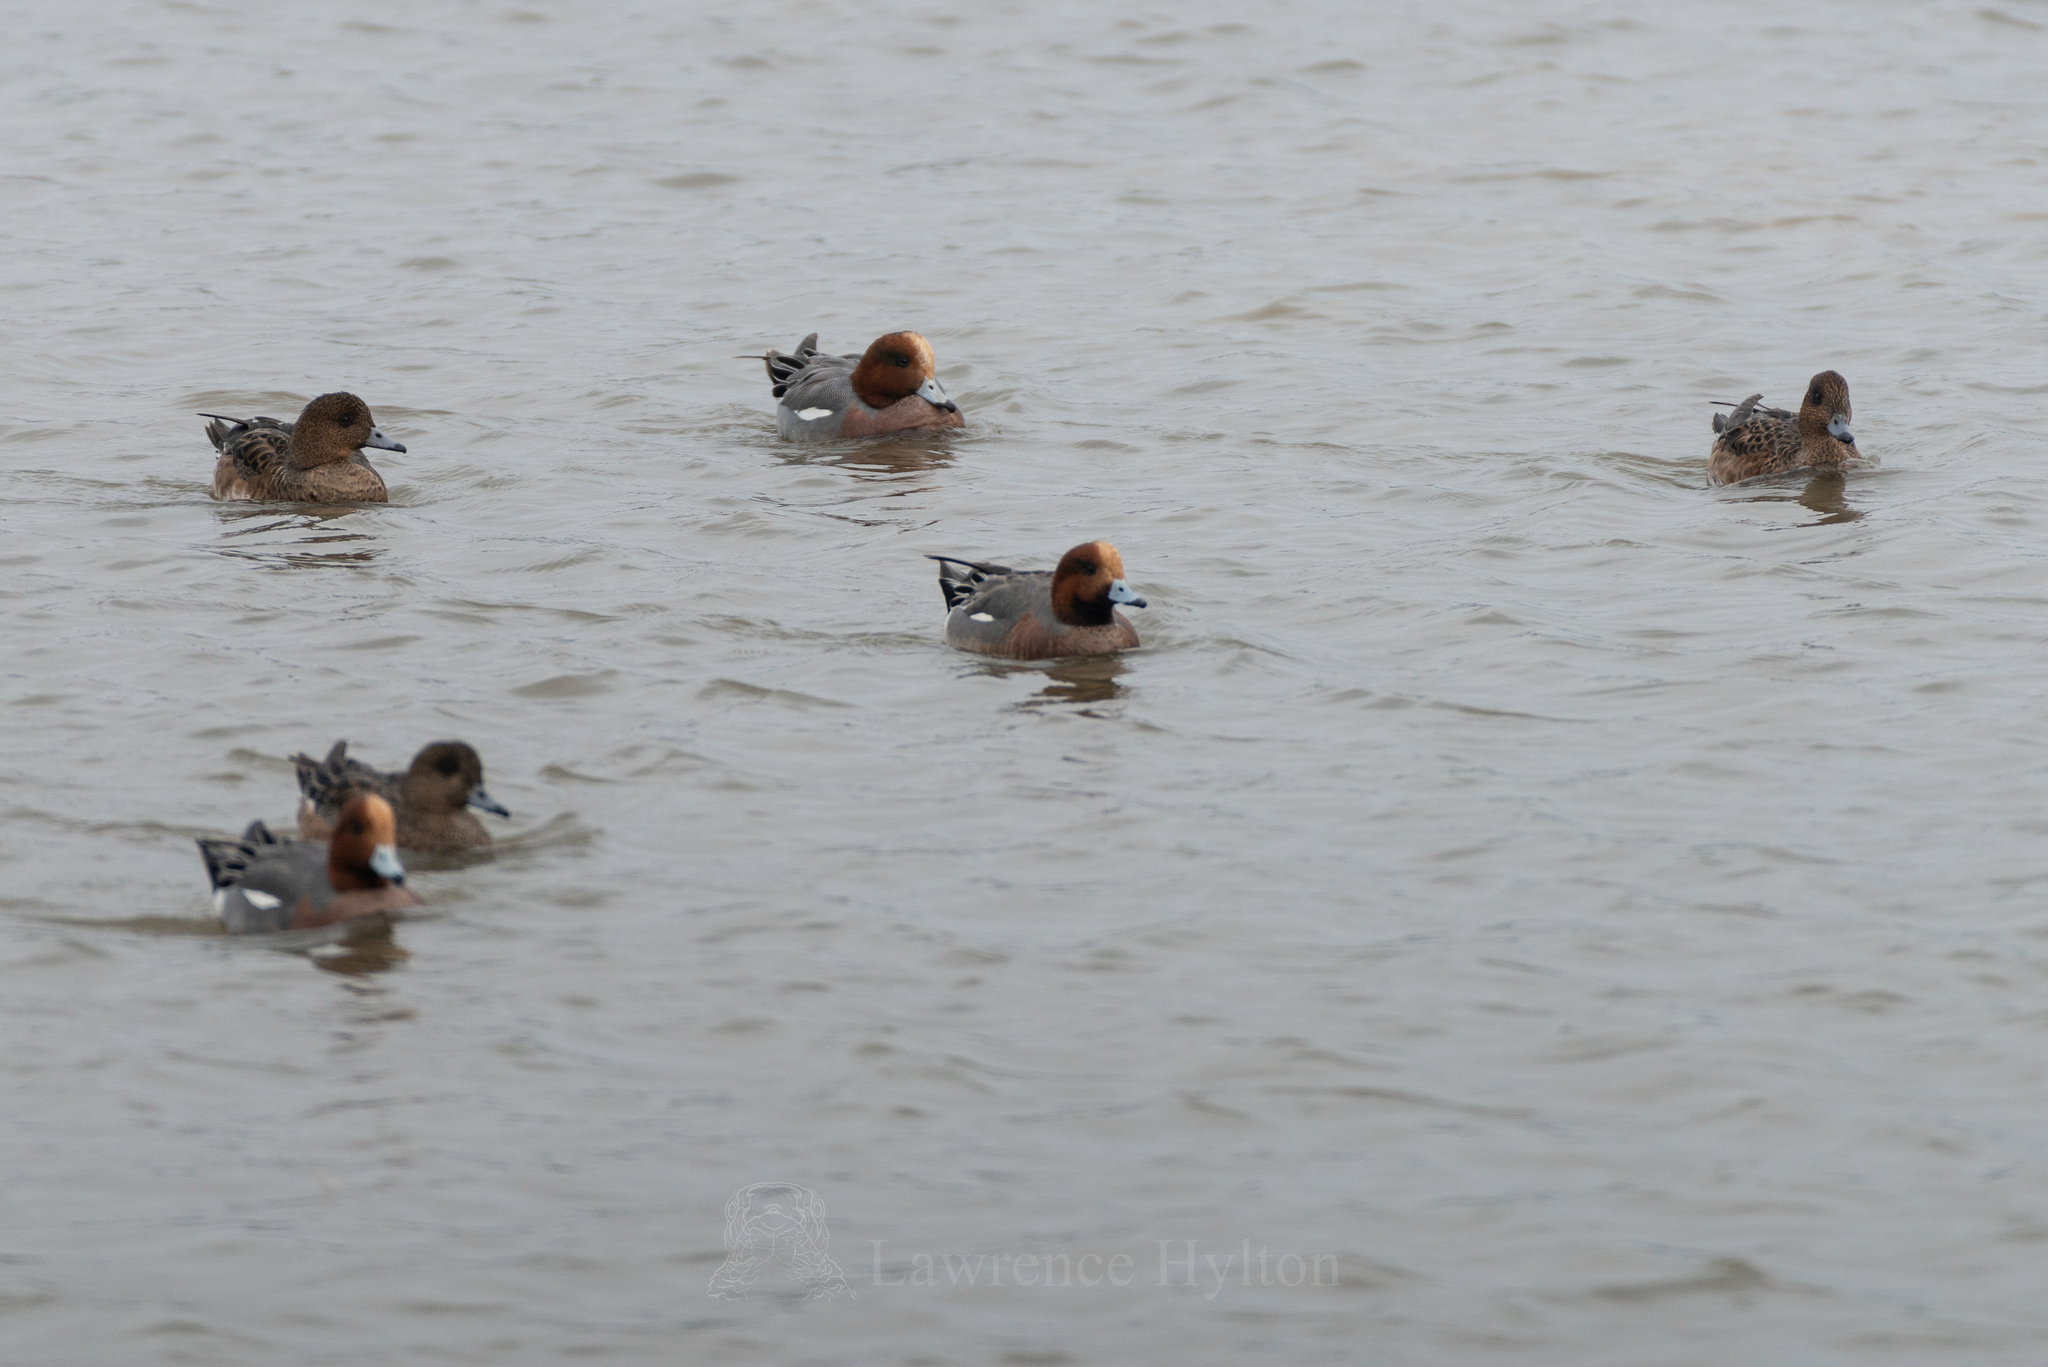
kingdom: Animalia
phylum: Chordata
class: Aves
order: Anseriformes
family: Anatidae
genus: Mareca
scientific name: Mareca penelope
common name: Eurasian wigeon
